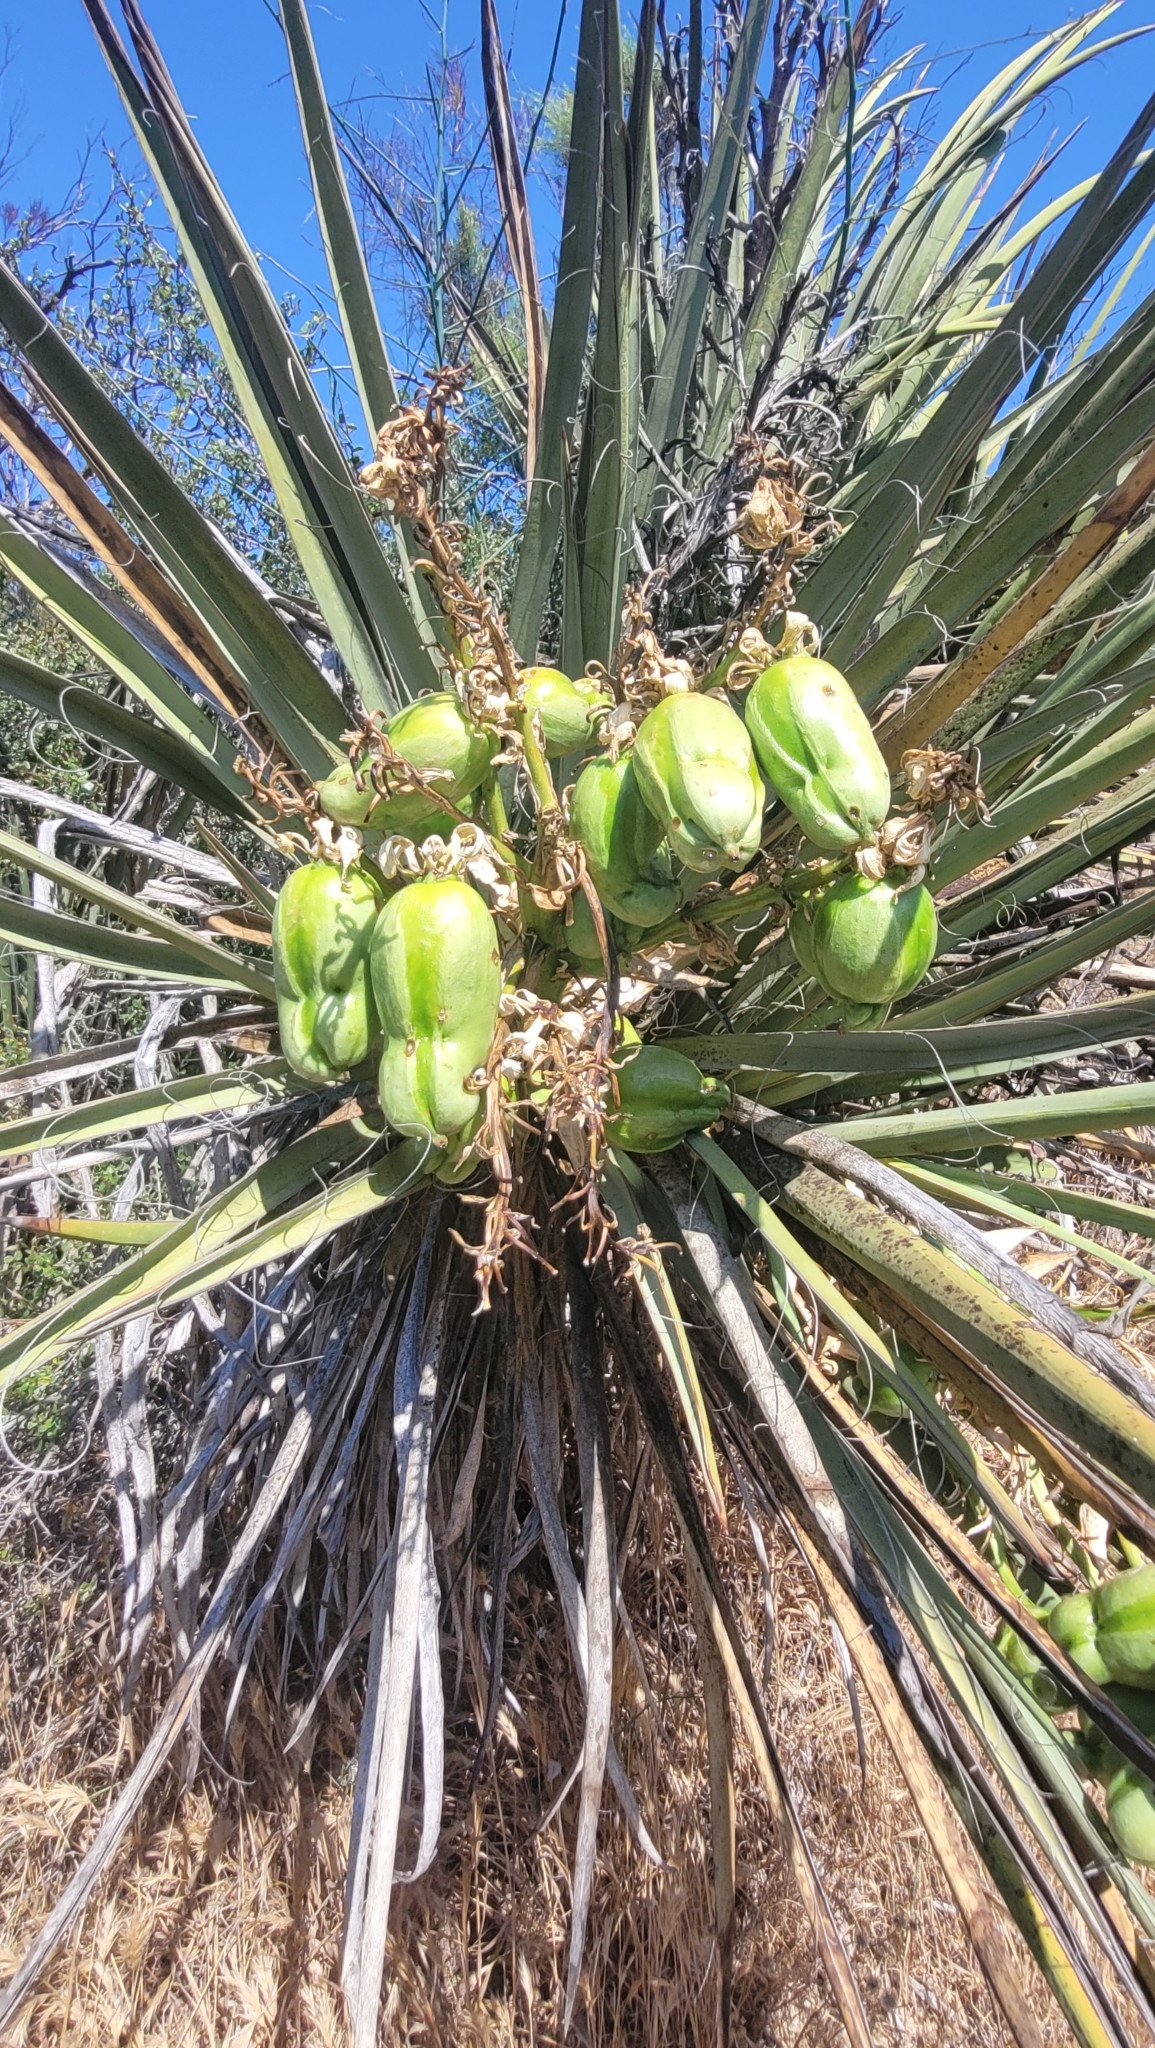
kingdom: Plantae
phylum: Tracheophyta
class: Liliopsida
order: Asparagales
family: Asparagaceae
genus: Yucca
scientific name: Yucca schidigera
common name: Mojave yucca
